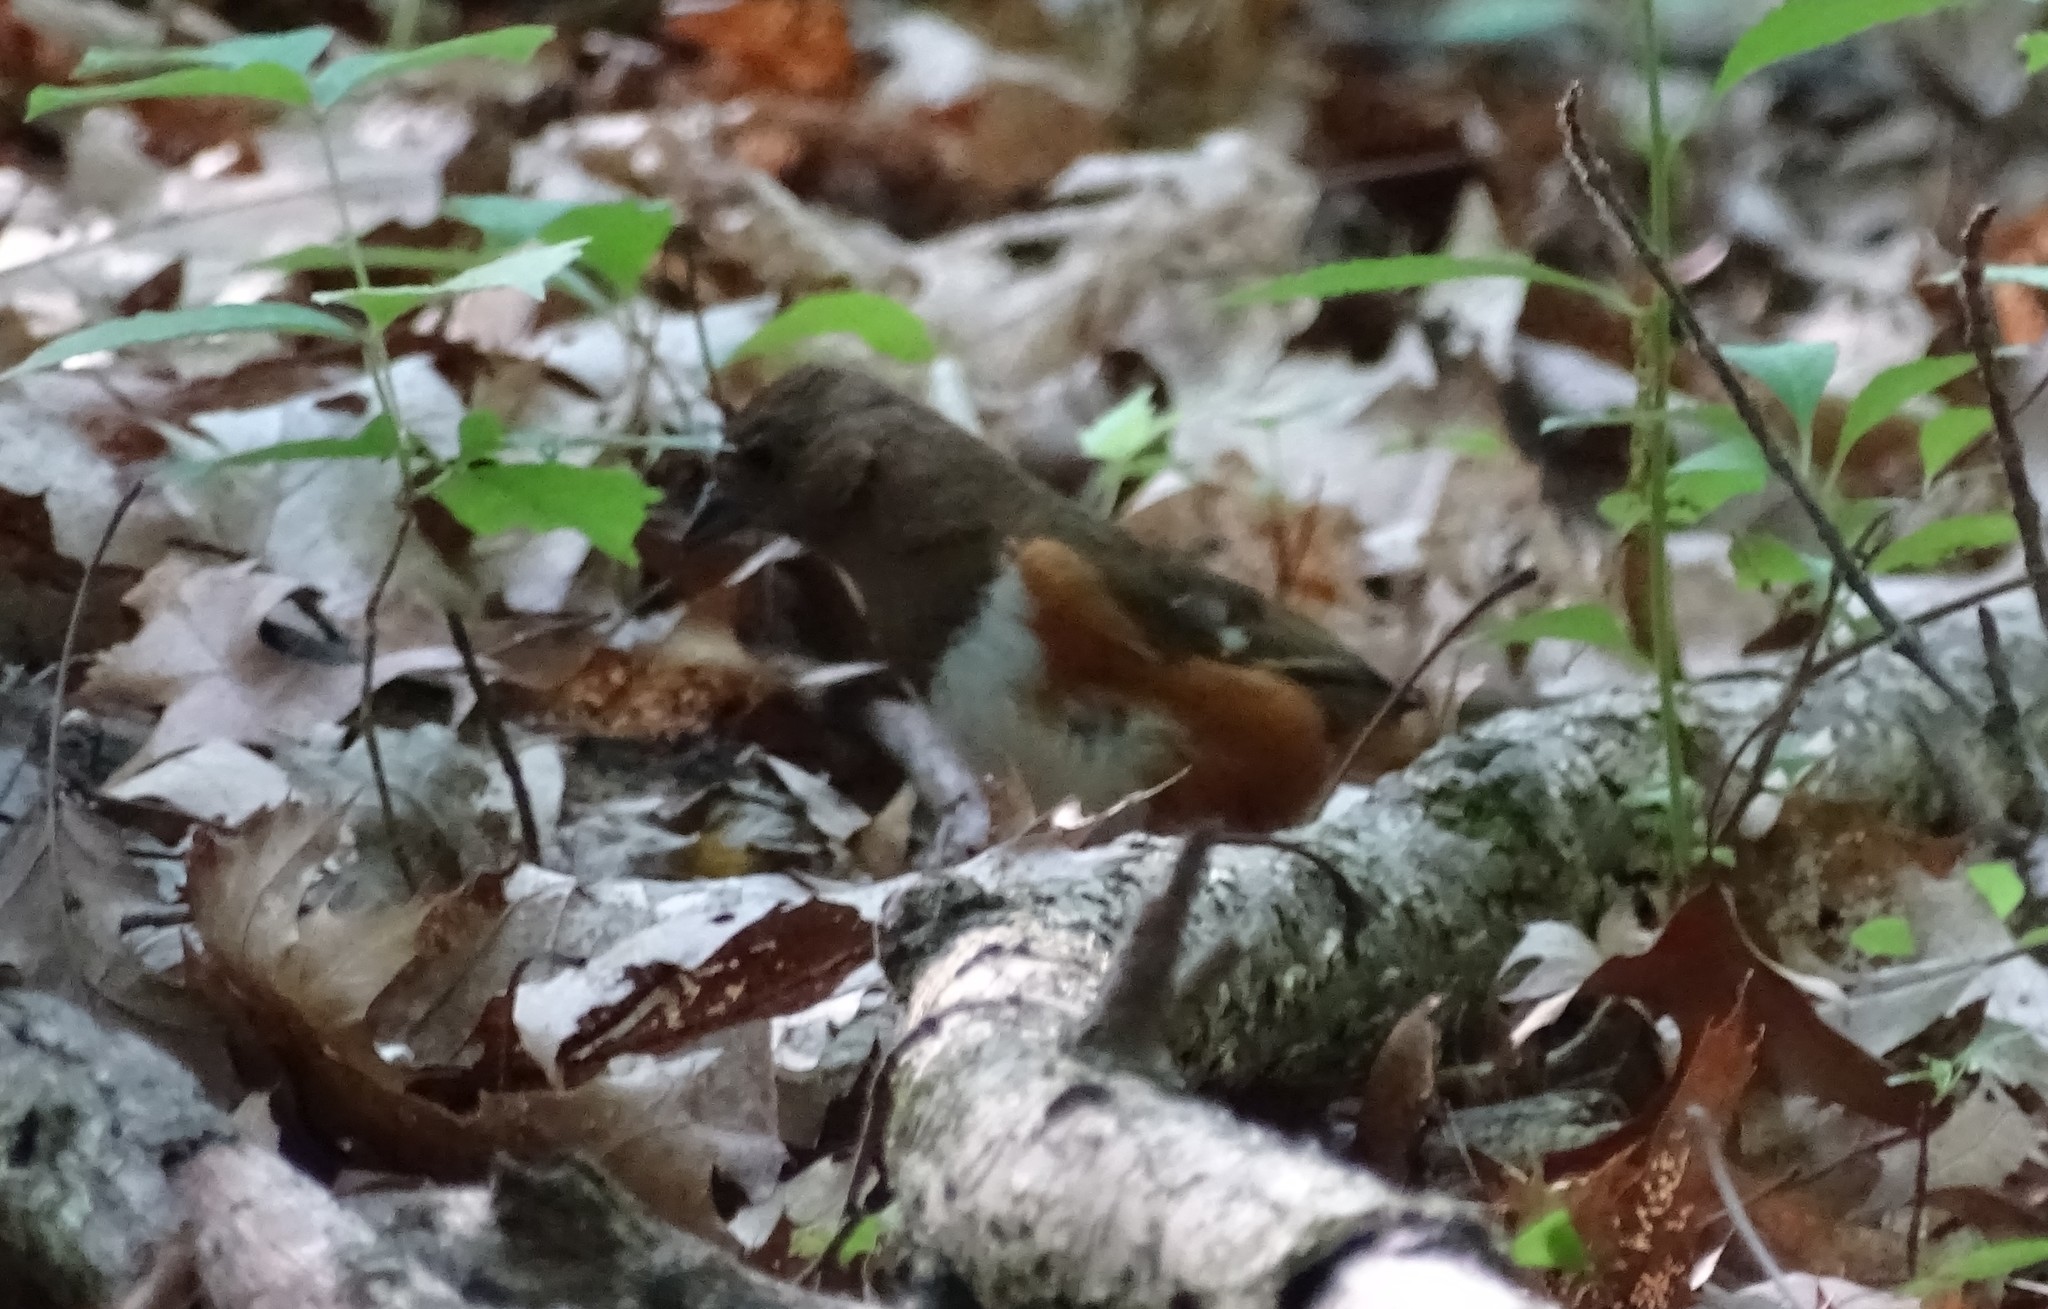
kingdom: Animalia
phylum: Chordata
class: Aves
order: Passeriformes
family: Passerellidae
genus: Pipilo
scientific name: Pipilo erythrophthalmus
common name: Eastern towhee
